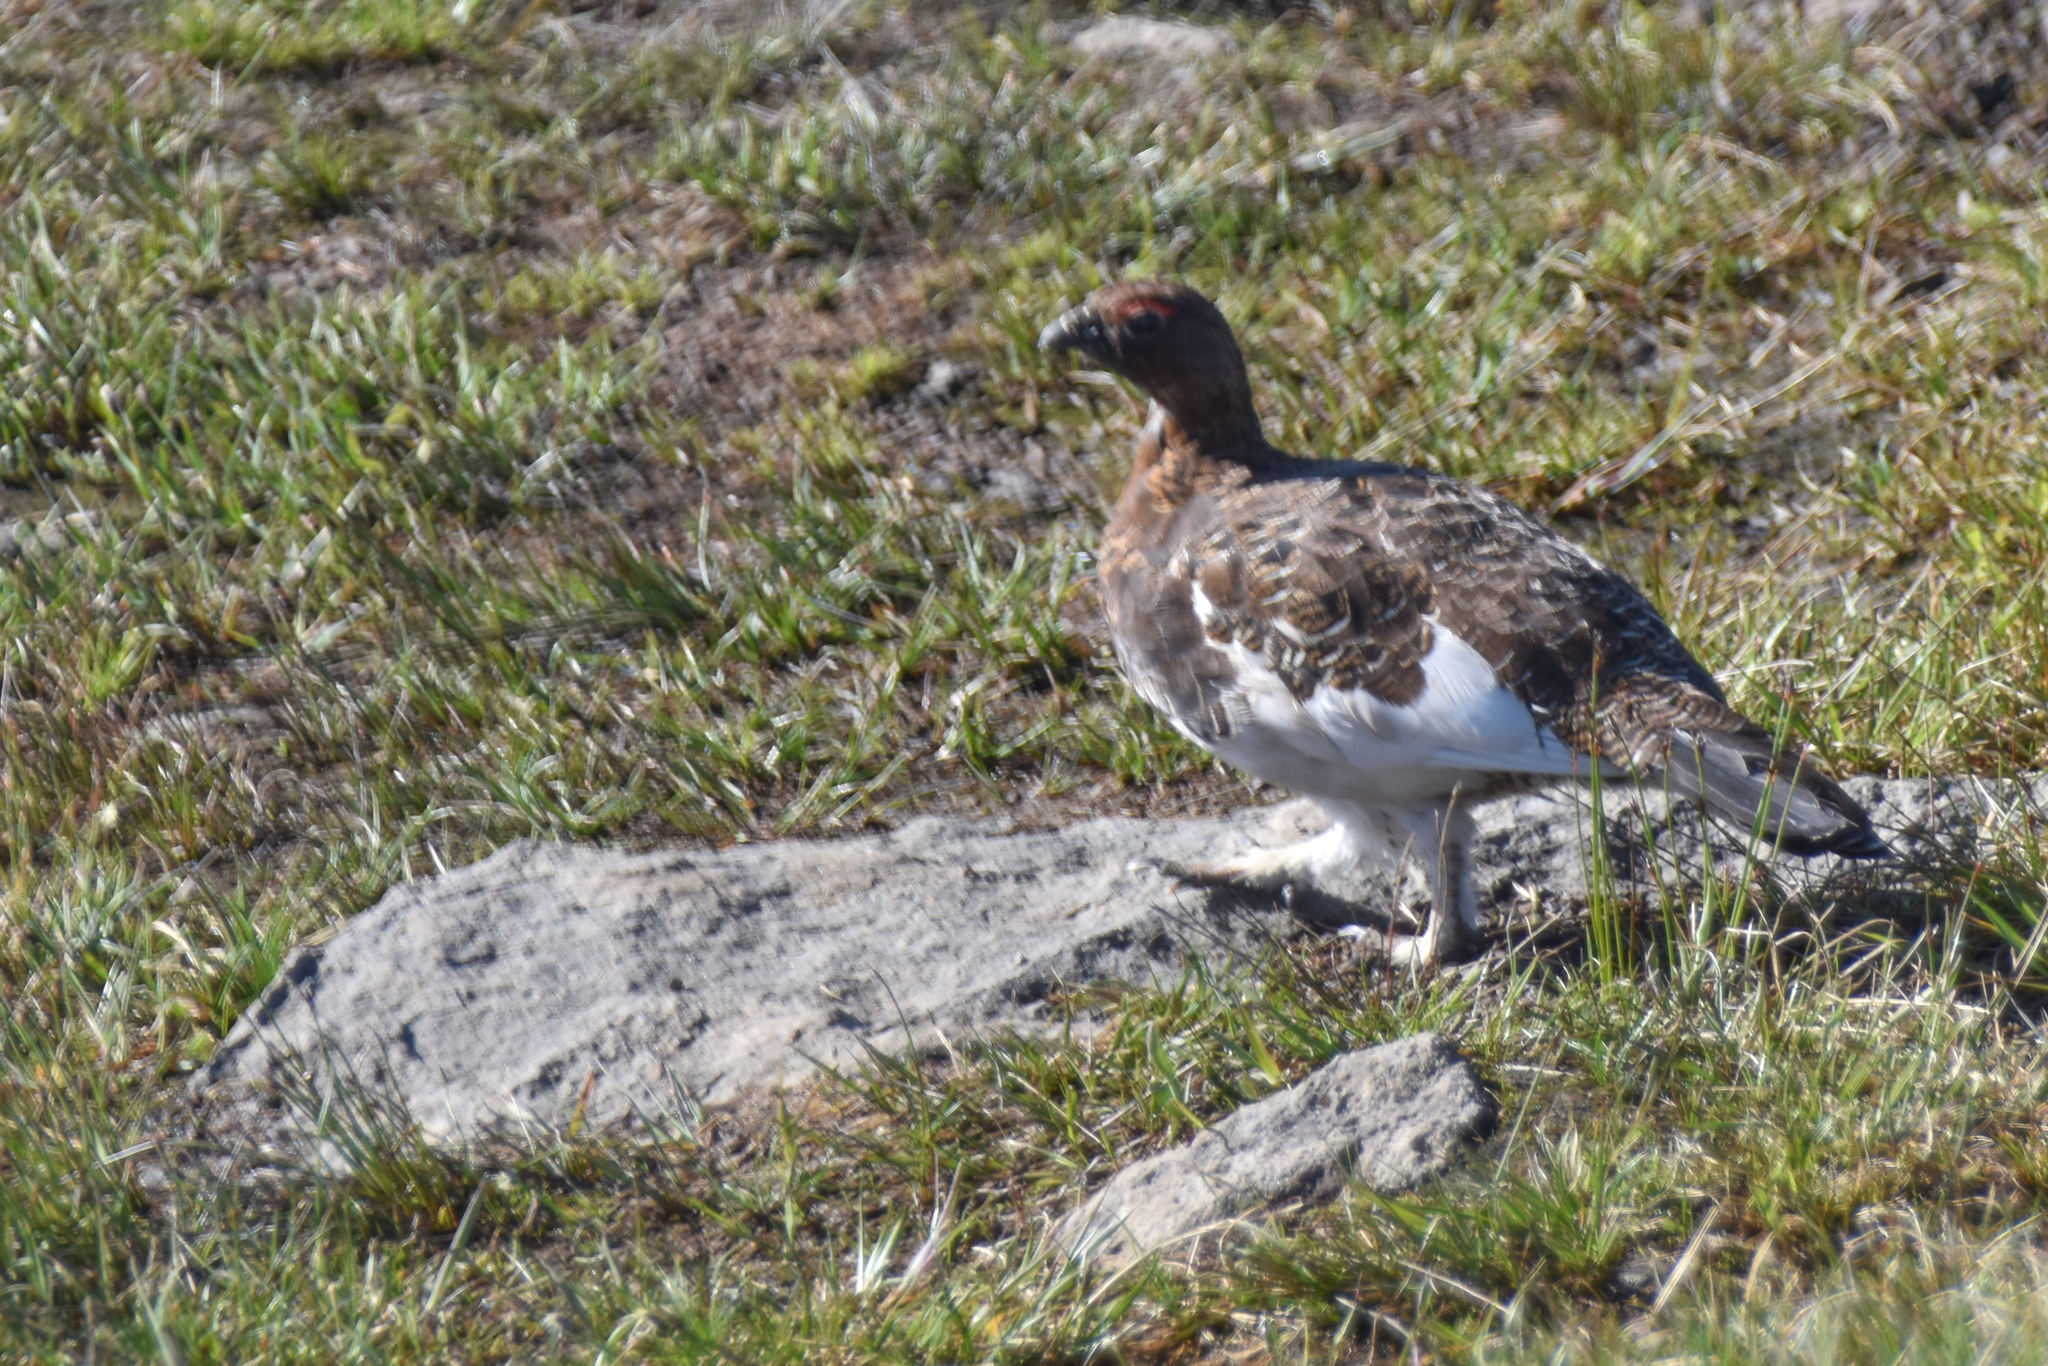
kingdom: Animalia
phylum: Chordata
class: Aves
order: Galliformes
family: Phasianidae
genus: Lagopus
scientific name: Lagopus lagopus
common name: Willow ptarmigan
